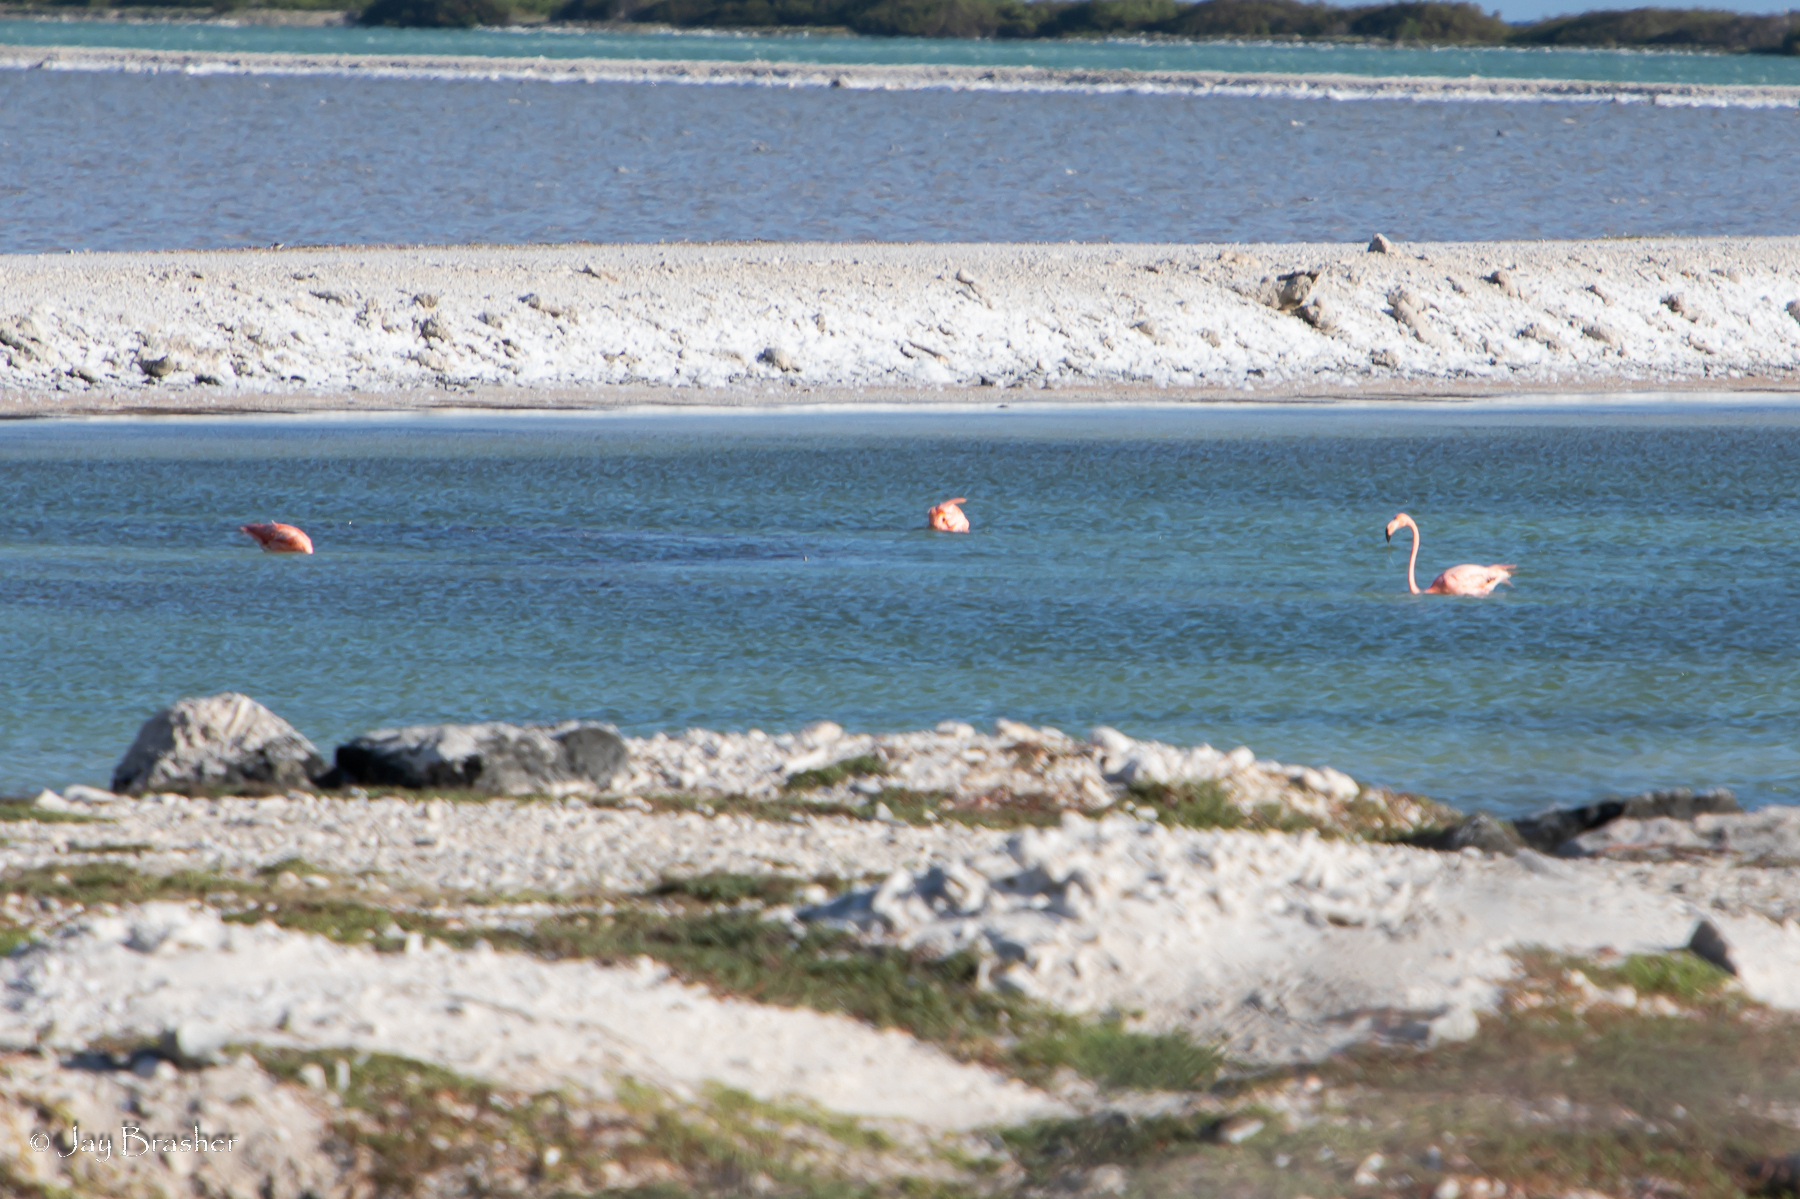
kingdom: Animalia
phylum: Chordata
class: Aves
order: Phoenicopteriformes
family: Phoenicopteridae
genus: Phoenicopterus
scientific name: Phoenicopterus ruber
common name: American flamingo
